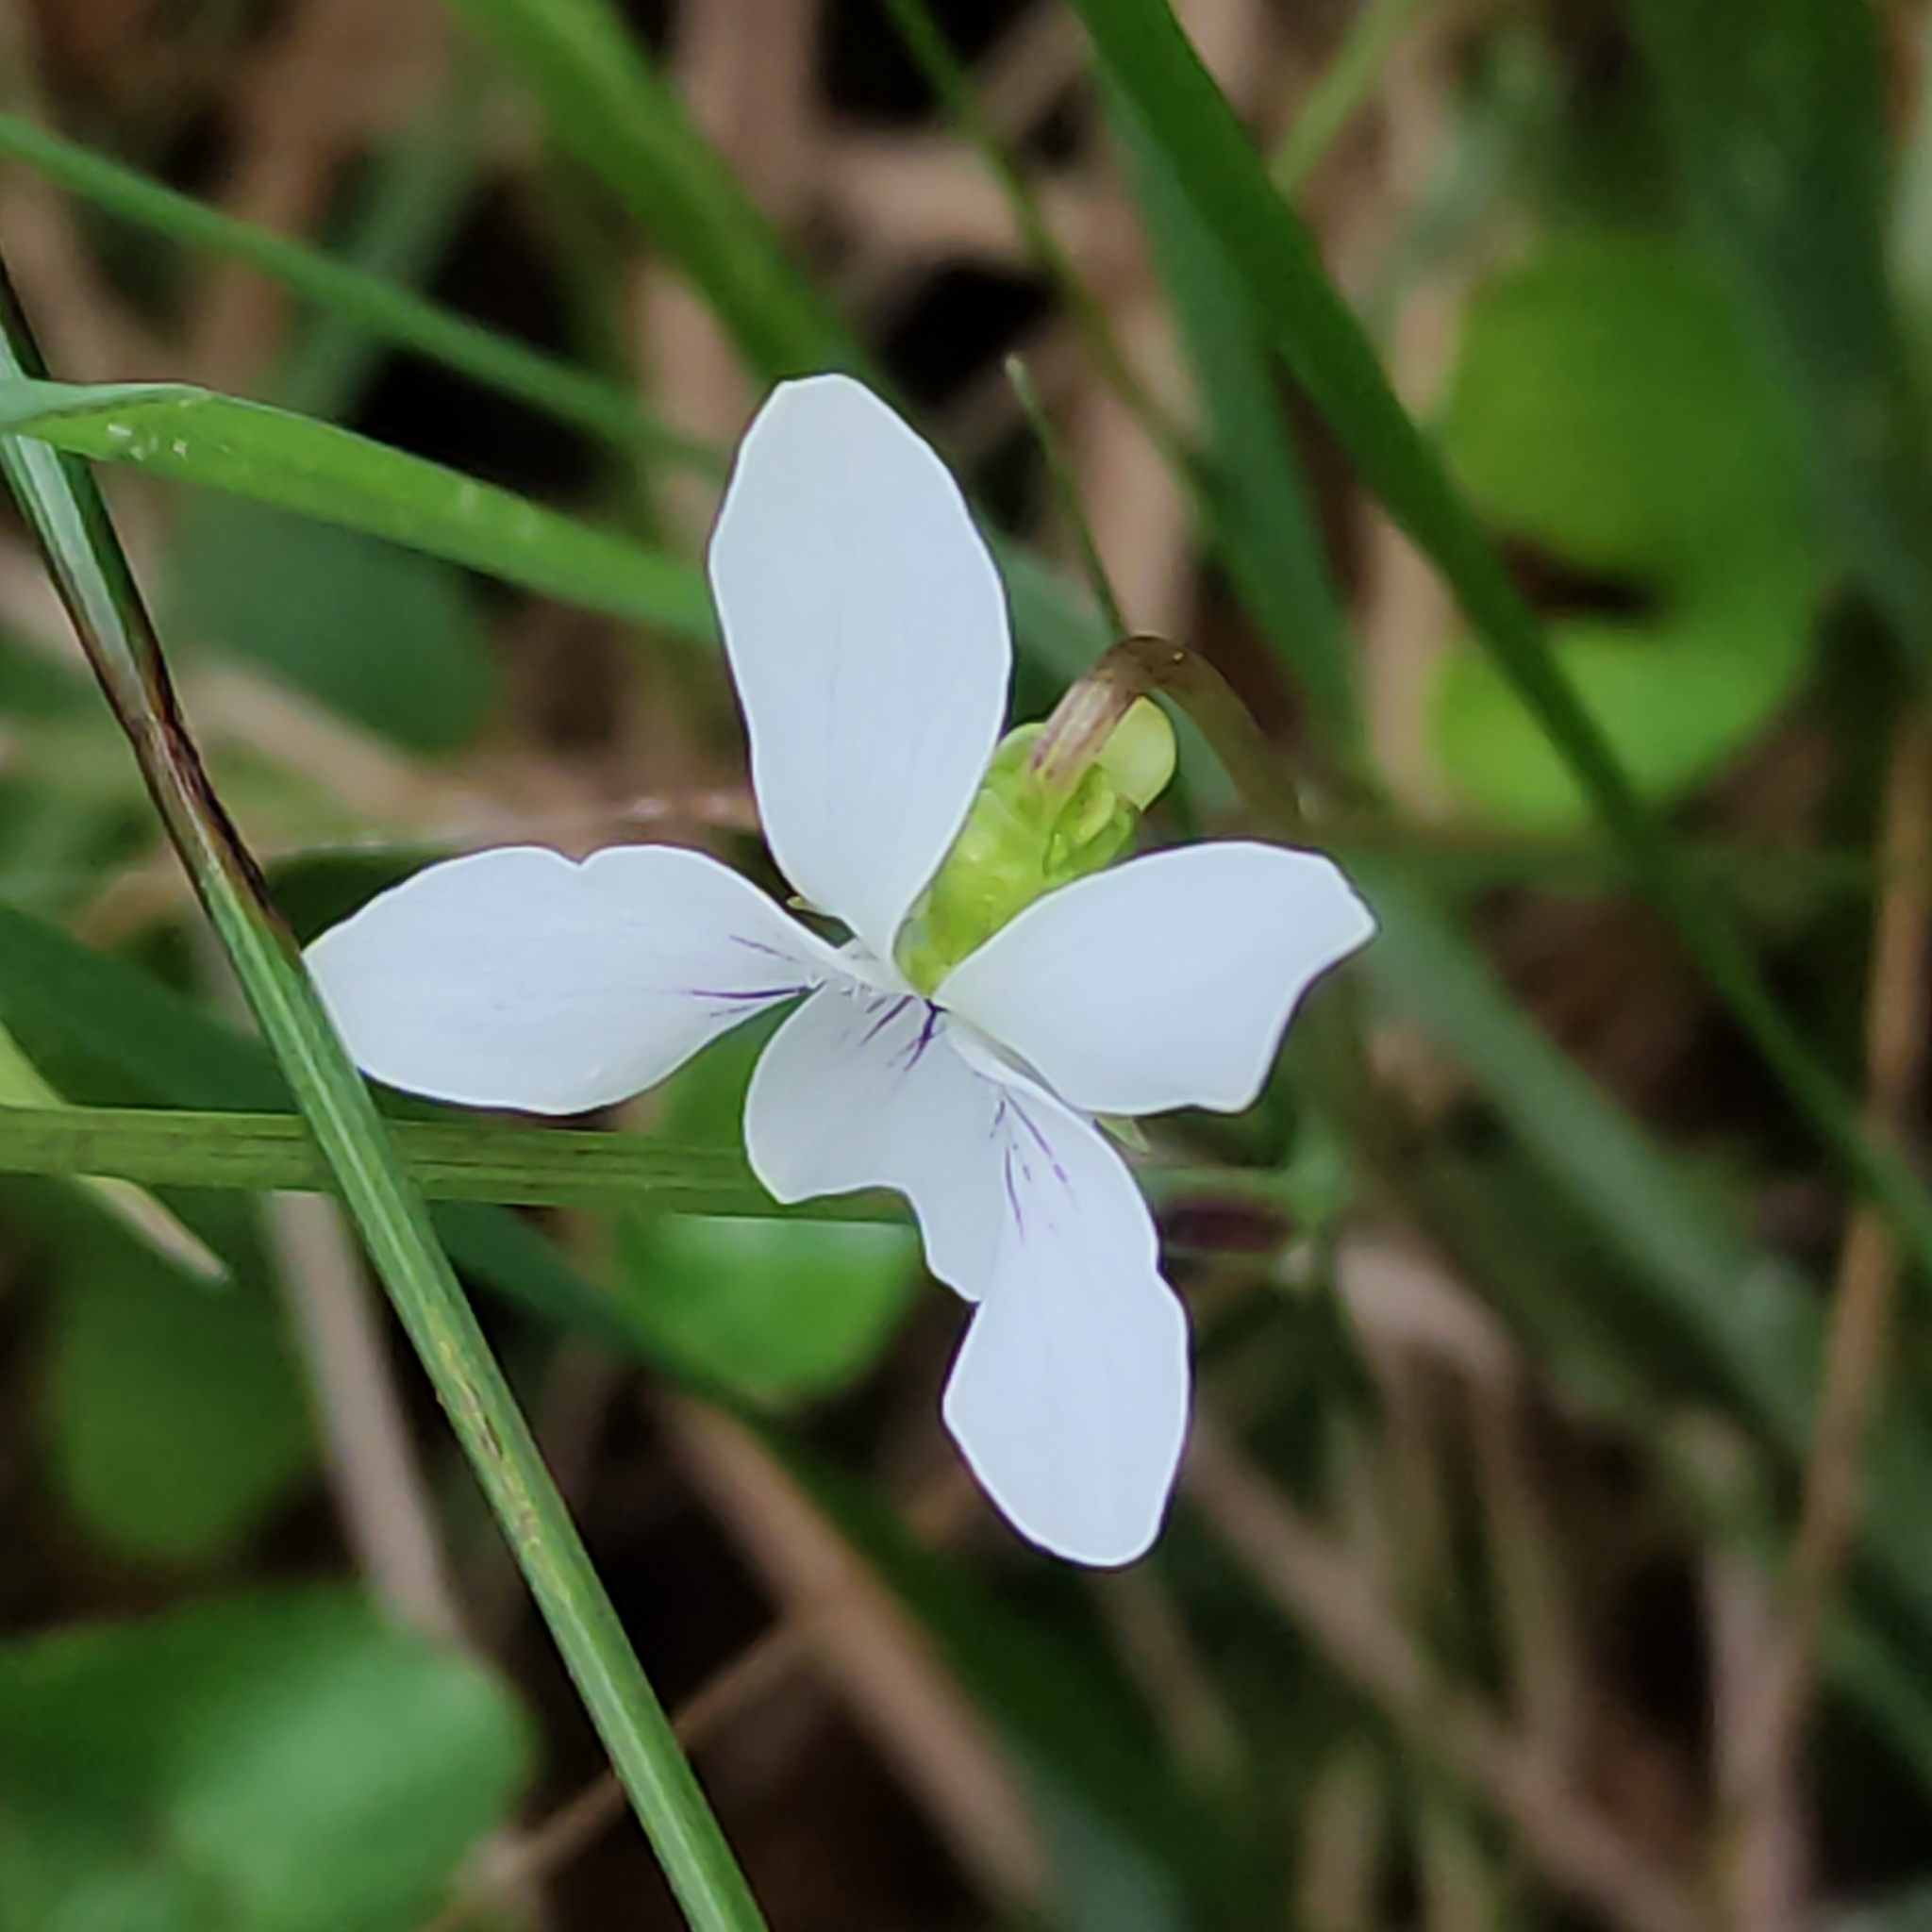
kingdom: Plantae
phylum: Tracheophyta
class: Magnoliopsida
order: Malpighiales
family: Violaceae
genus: Viola
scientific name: Viola cunninghamii
